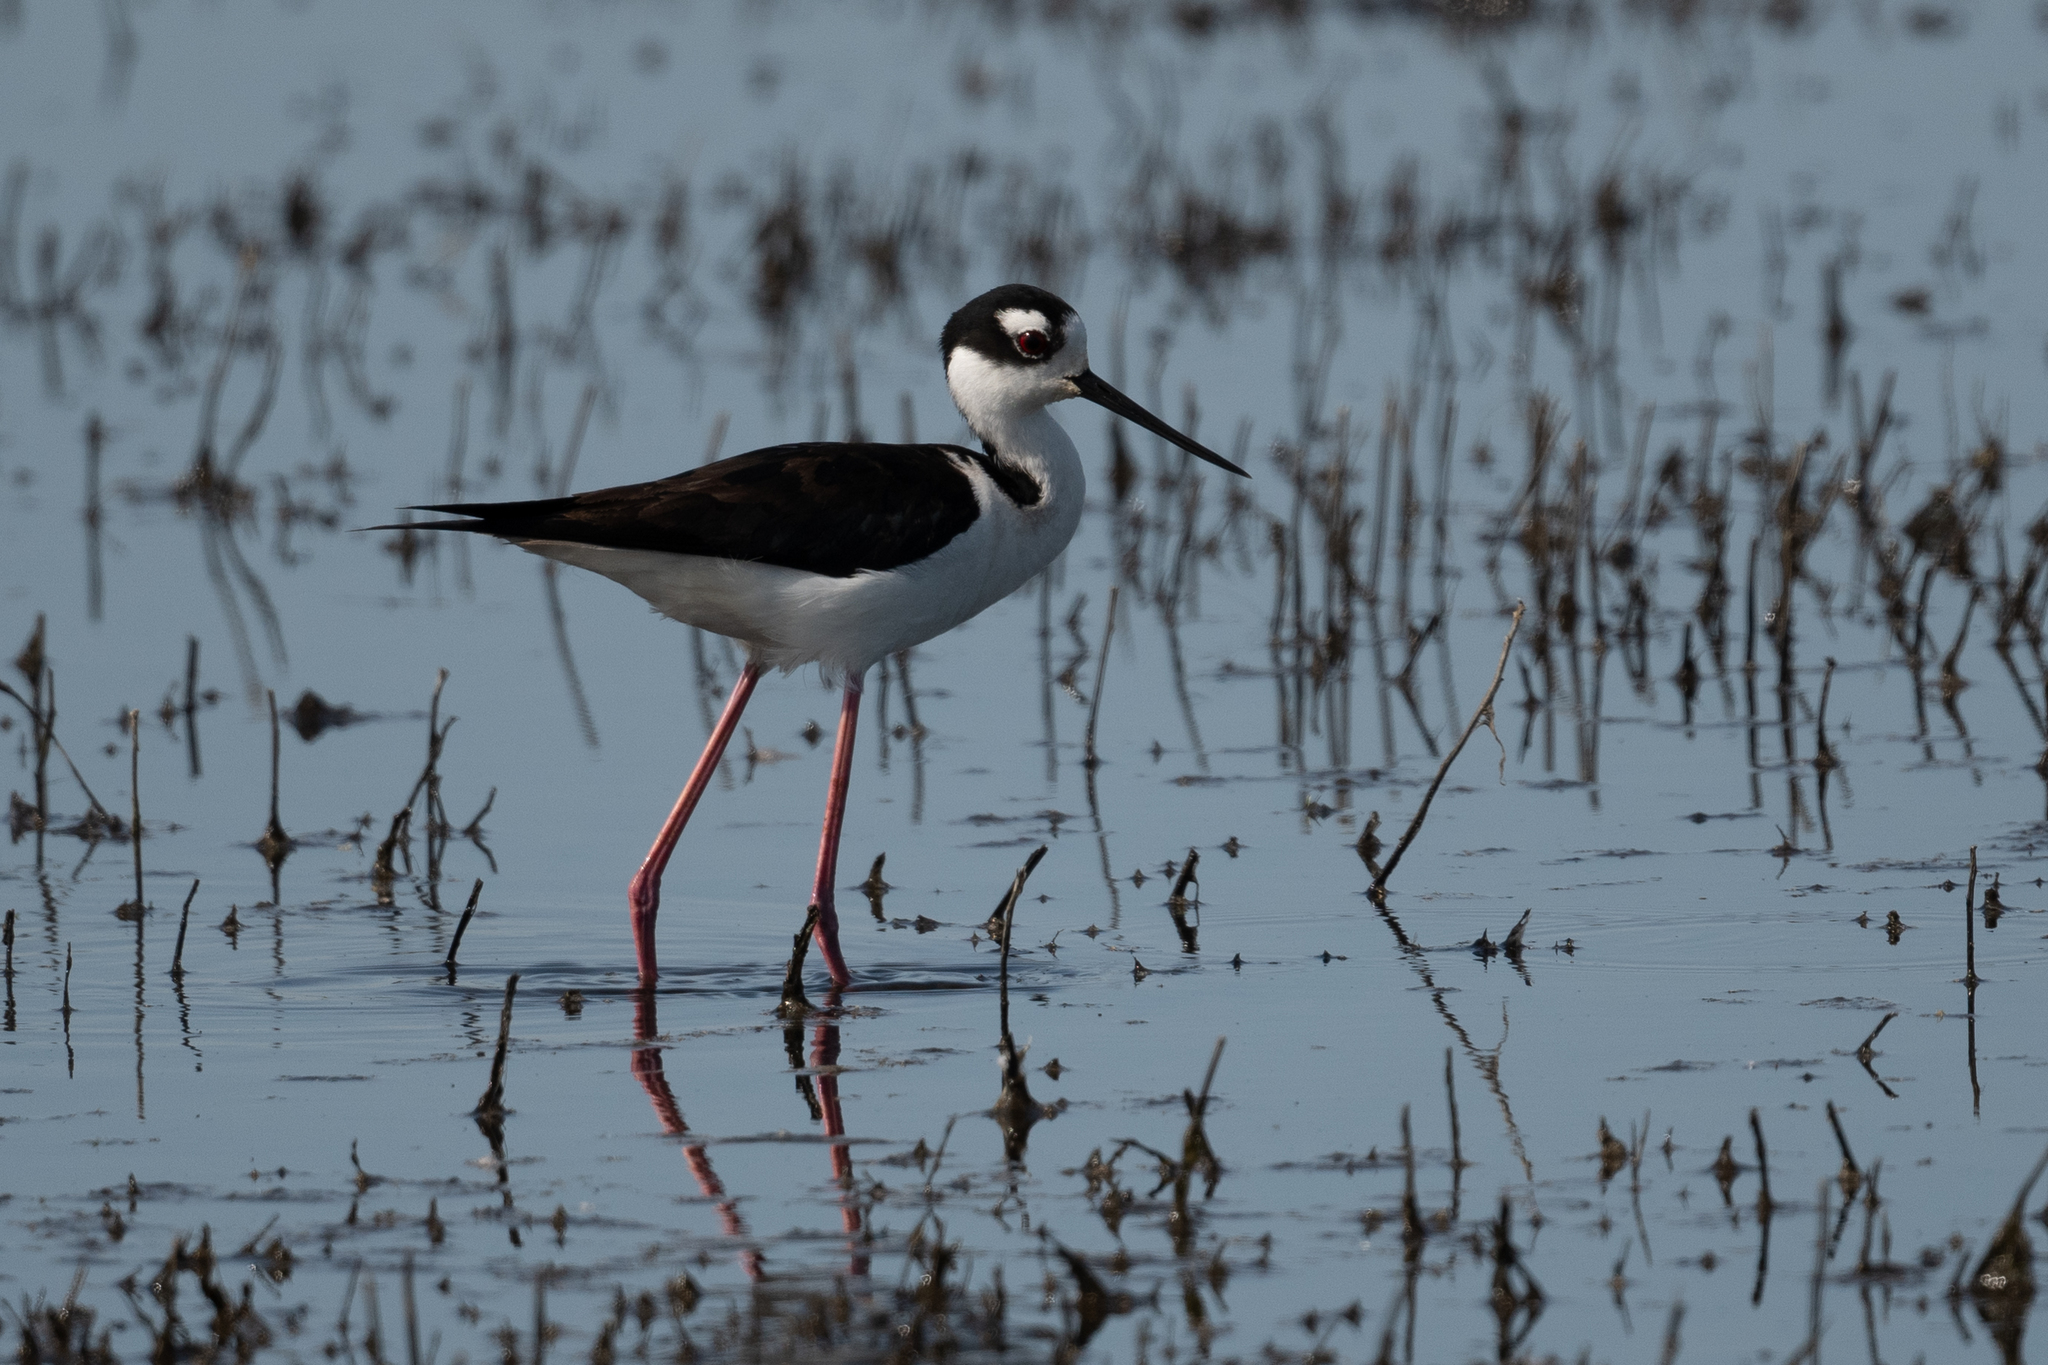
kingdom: Animalia
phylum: Chordata
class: Aves
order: Charadriiformes
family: Recurvirostridae
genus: Himantopus
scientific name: Himantopus mexicanus
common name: Black-necked stilt
